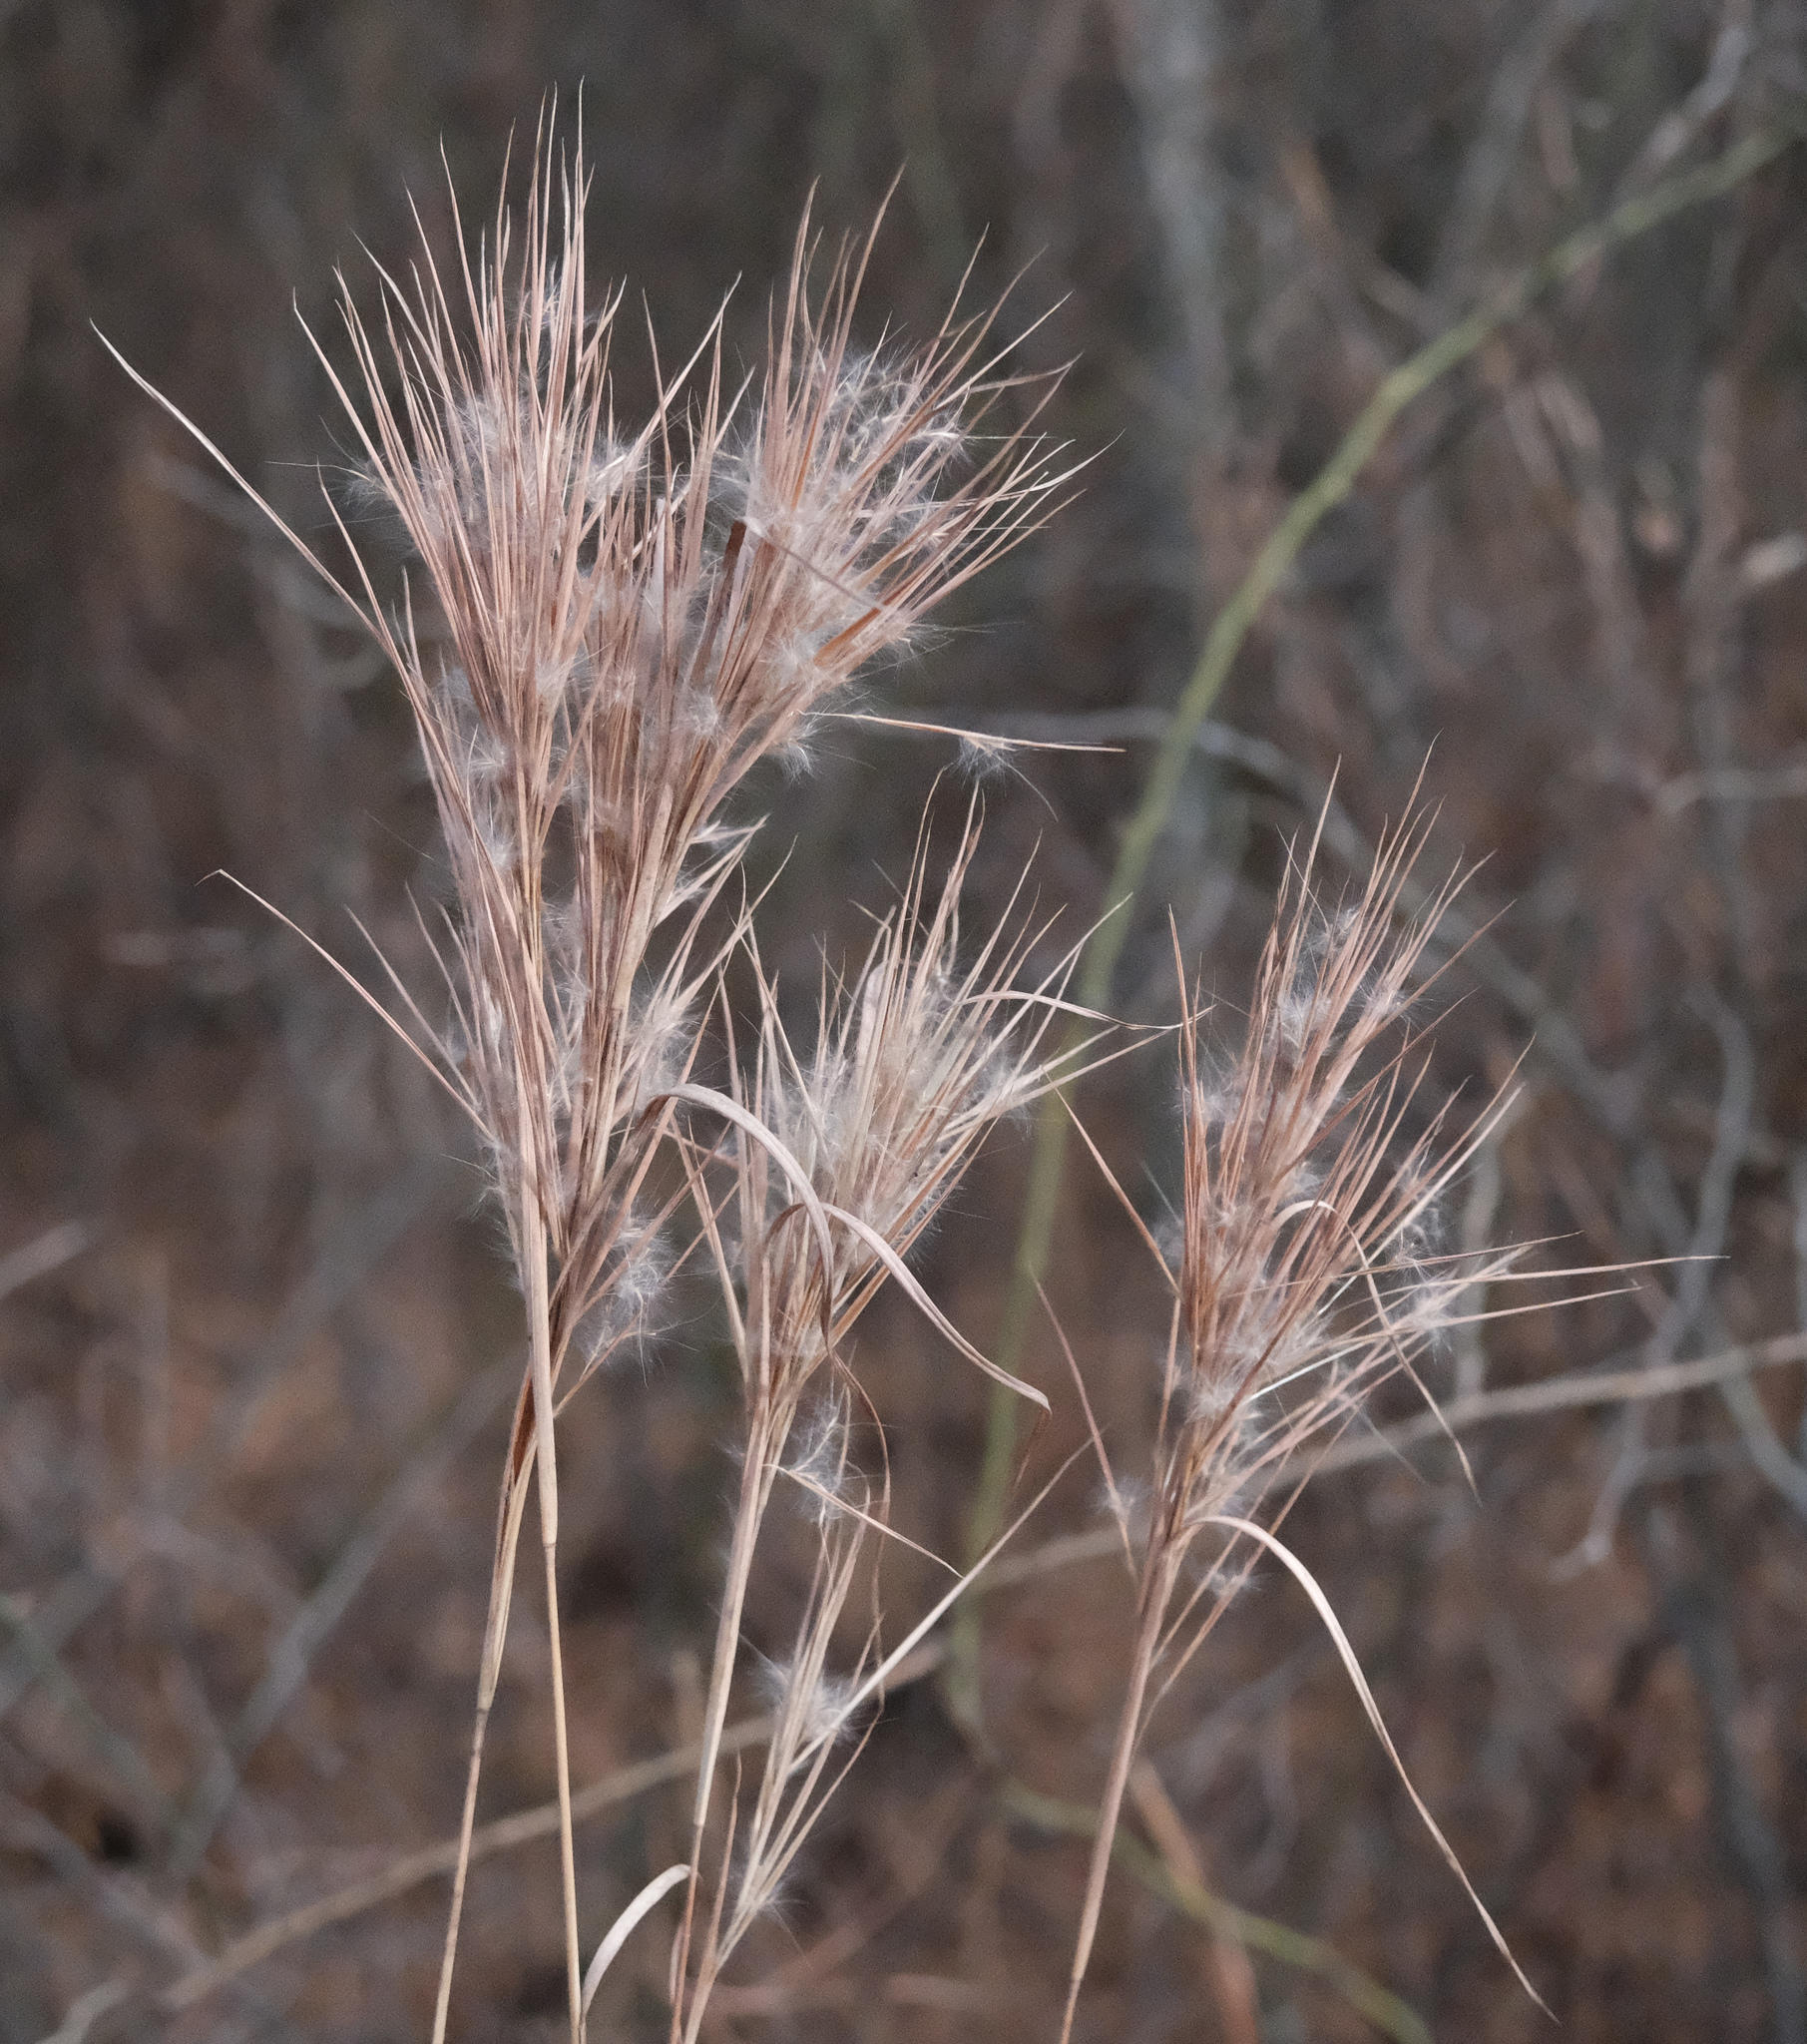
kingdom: Plantae
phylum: Tracheophyta
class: Liliopsida
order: Poales
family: Poaceae
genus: Andropogon
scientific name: Andropogon glomeratus
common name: Bushy beard grass
